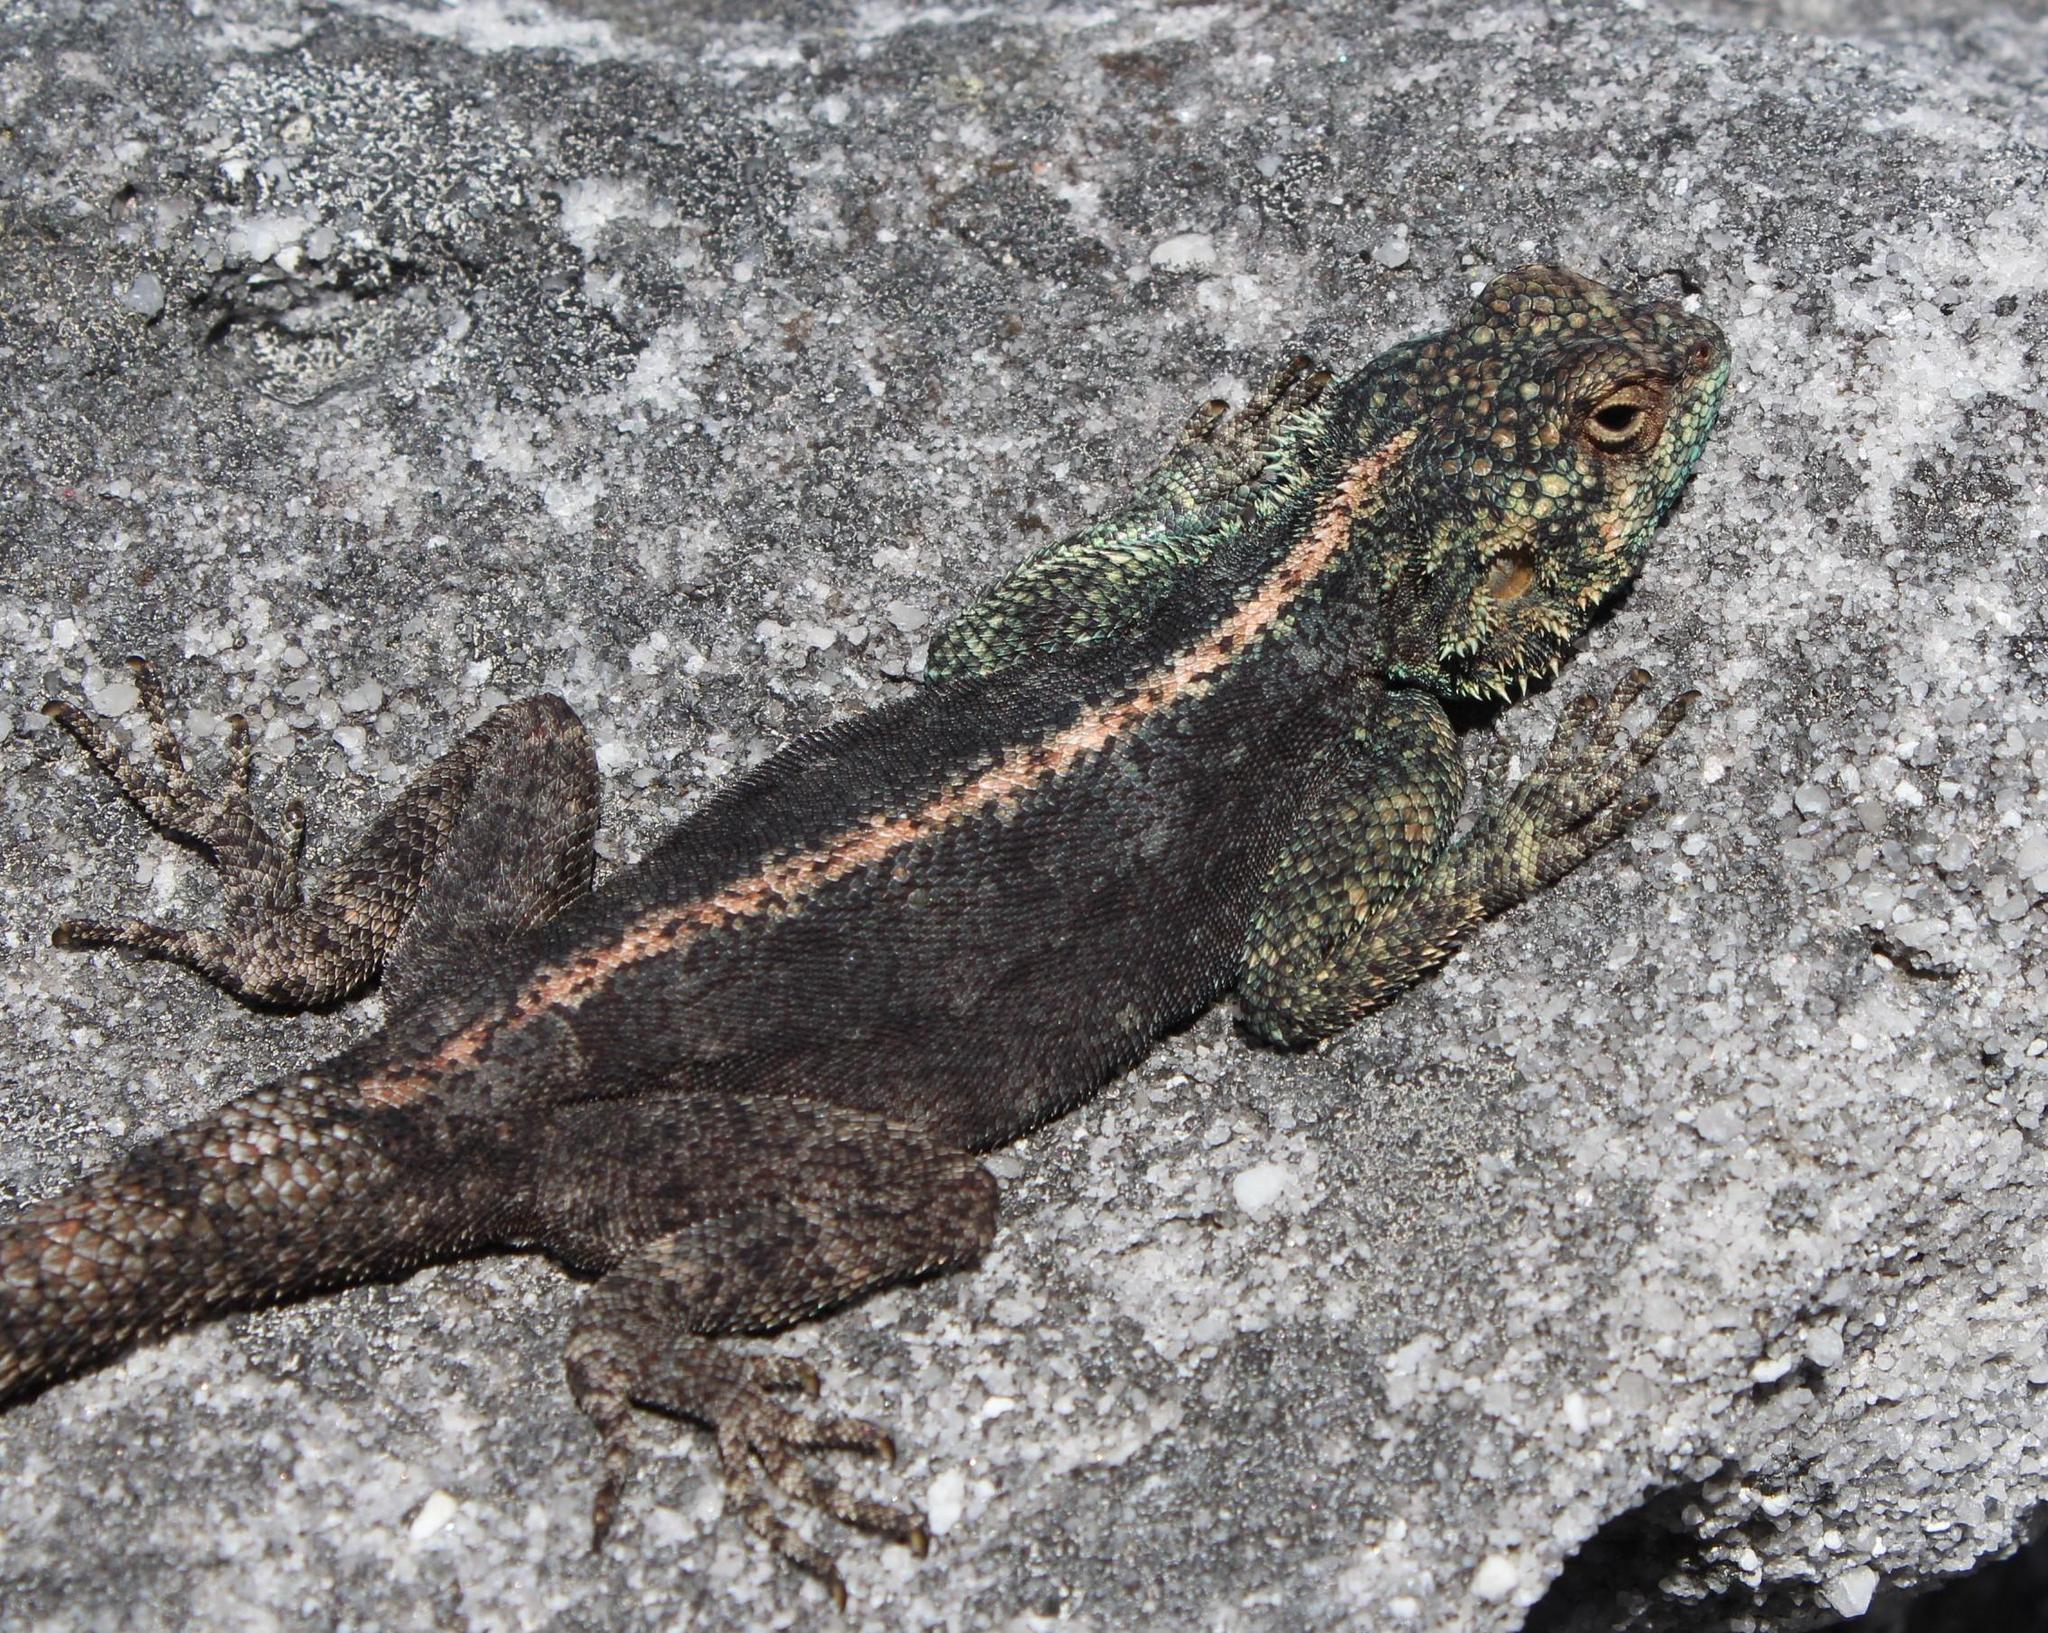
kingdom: Animalia
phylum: Chordata
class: Squamata
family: Agamidae
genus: Agama
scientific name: Agama atra
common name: Southern african rock agama
